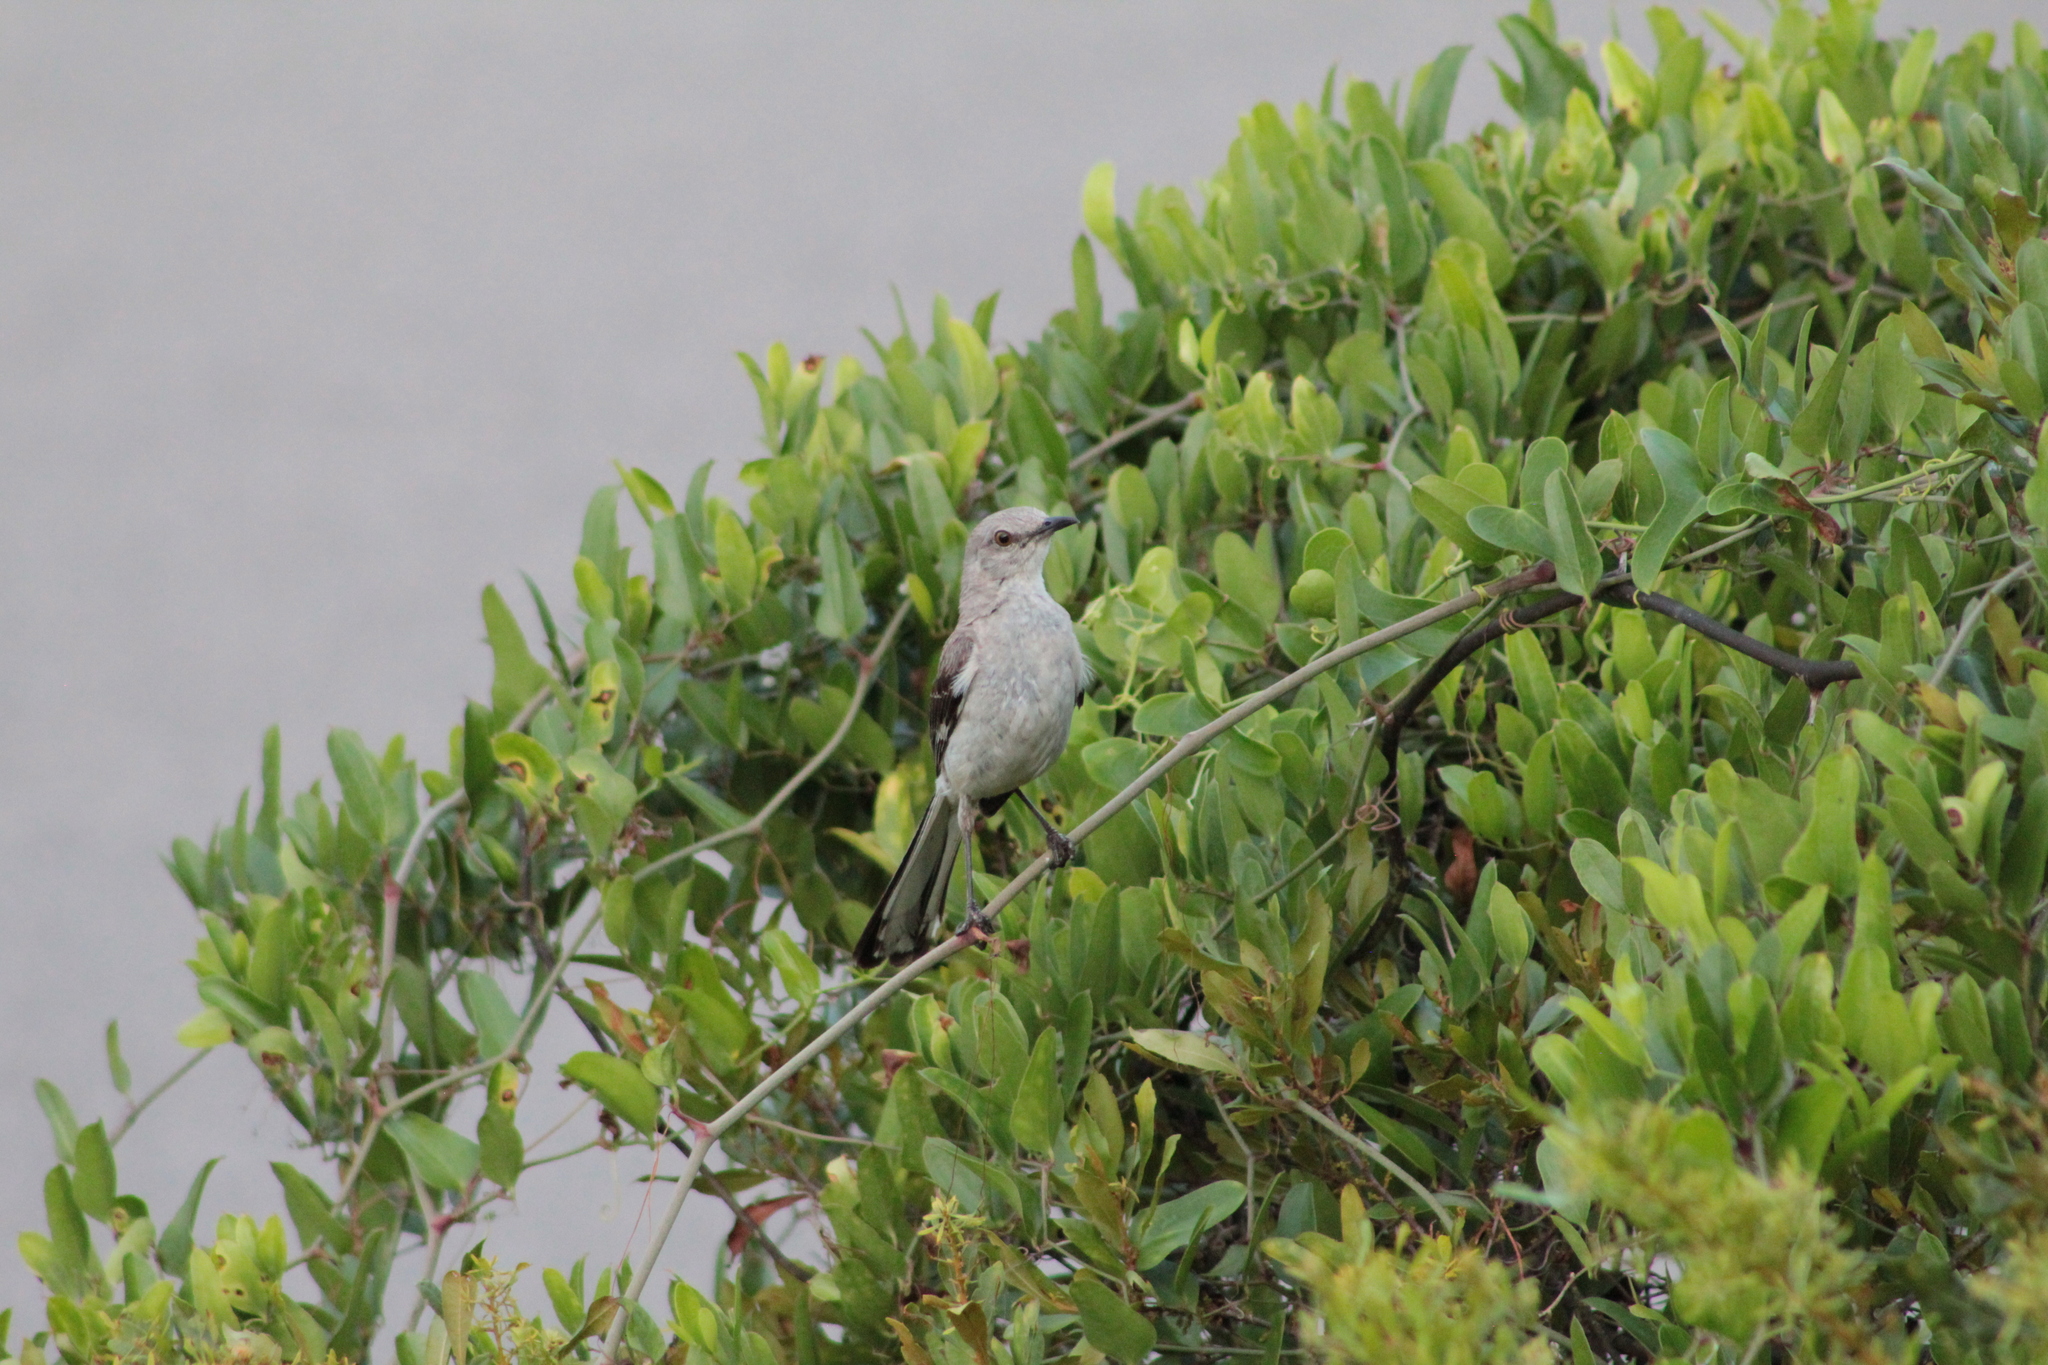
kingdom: Animalia
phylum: Chordata
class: Aves
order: Passeriformes
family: Mimidae
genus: Mimus
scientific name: Mimus polyglottos
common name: Northern mockingbird
